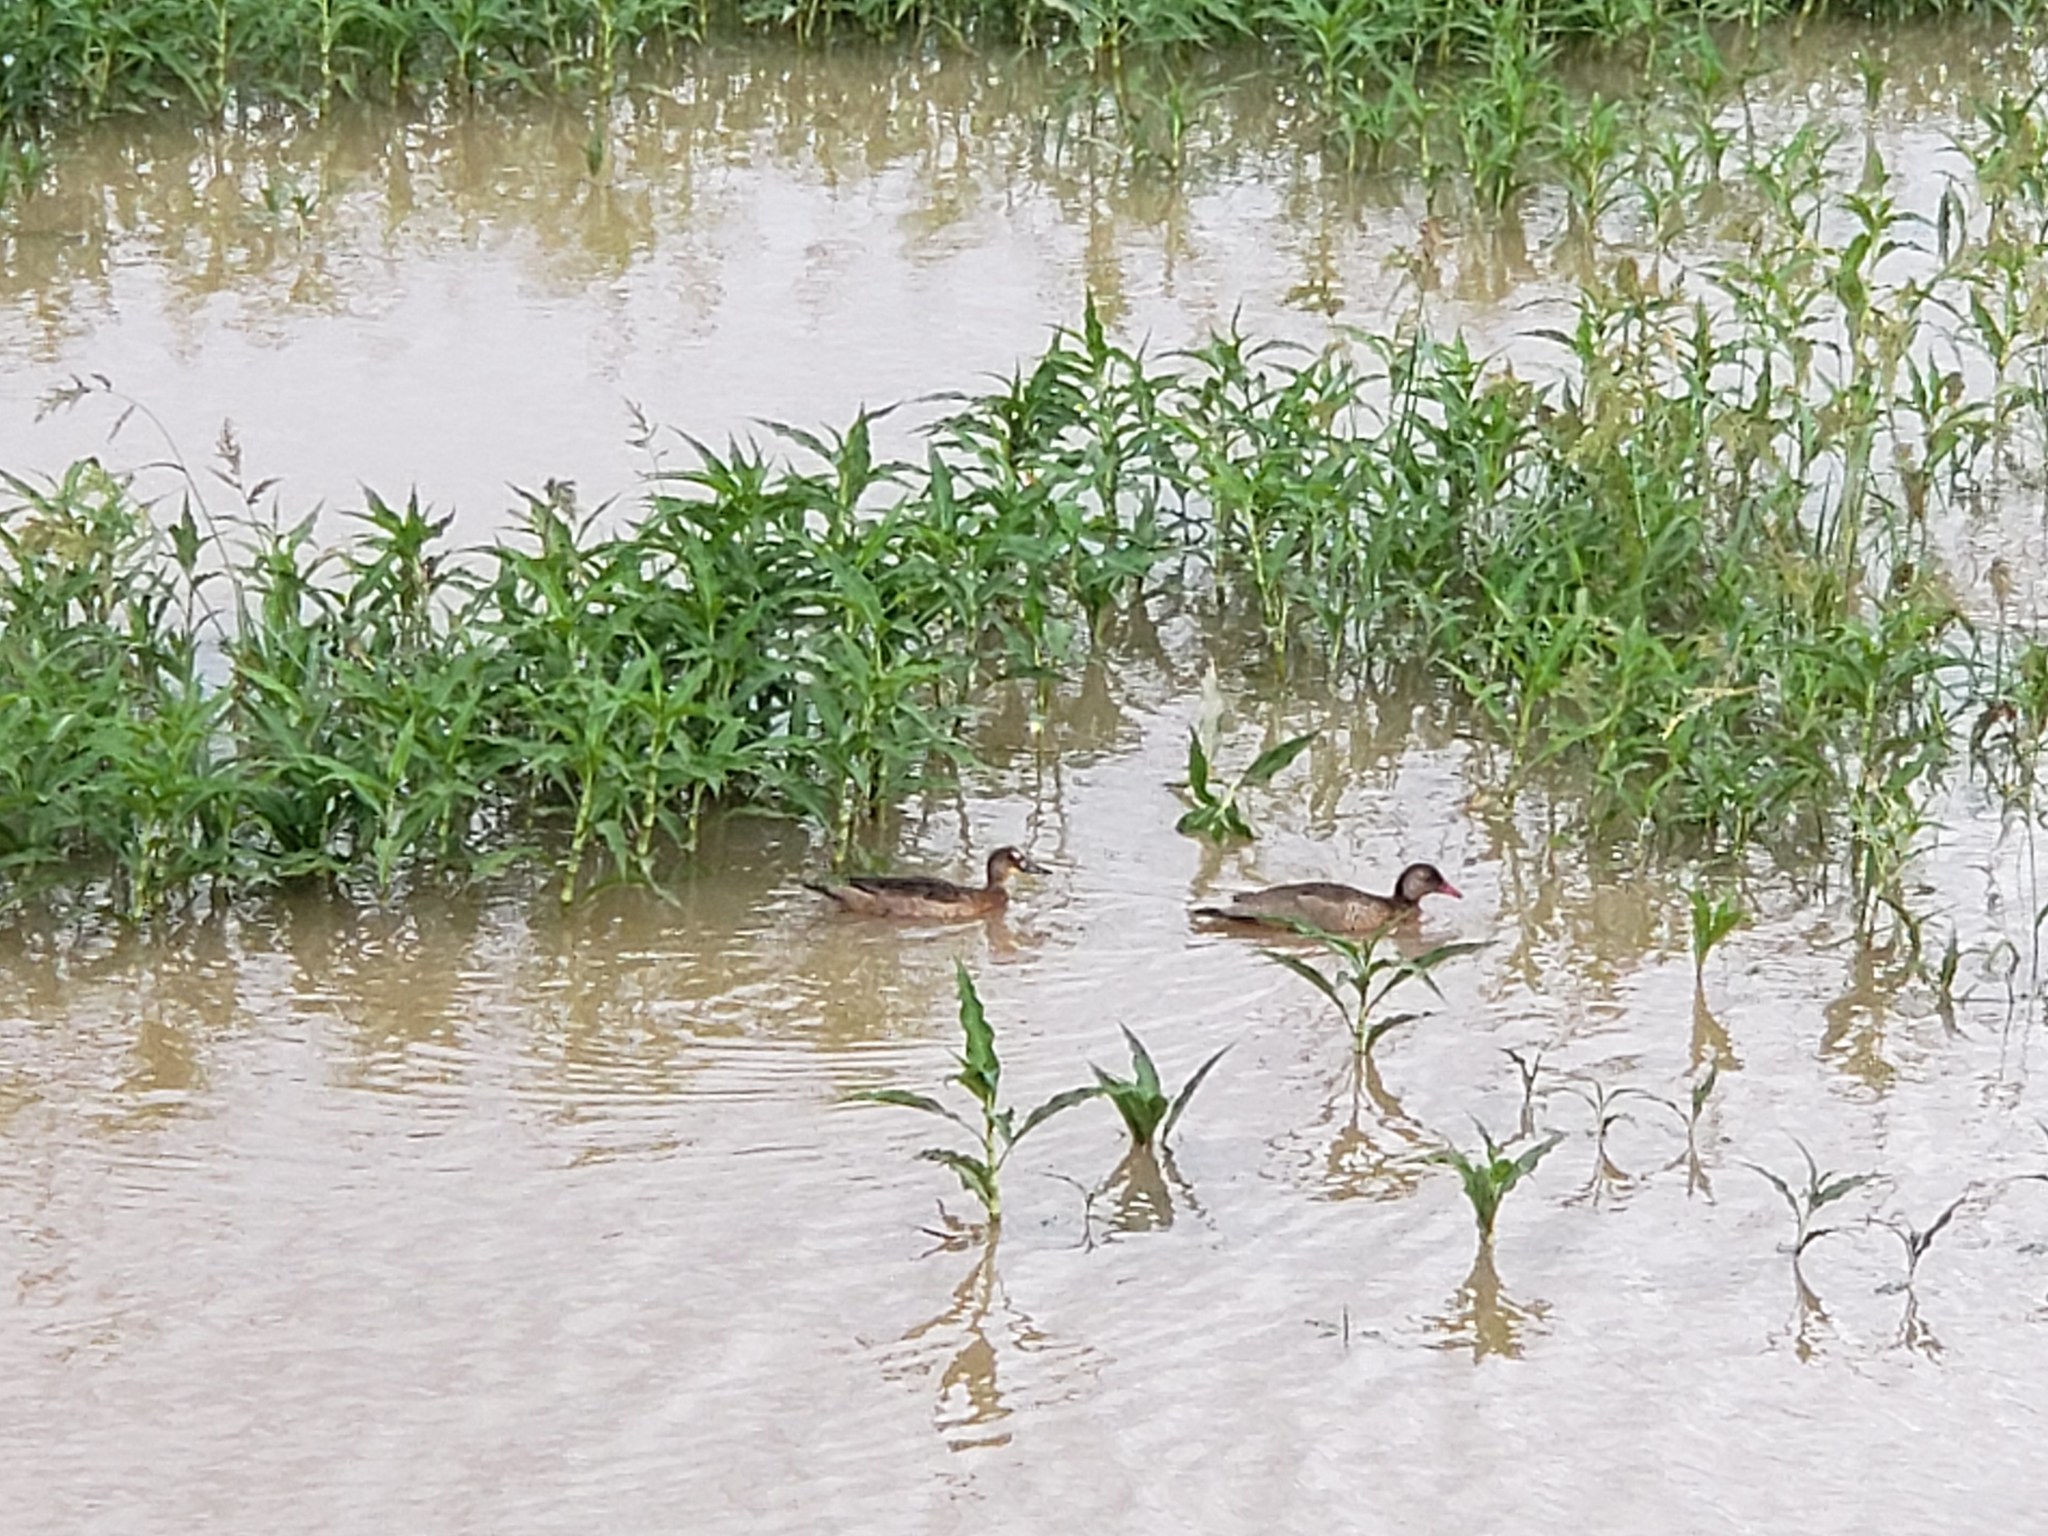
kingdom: Animalia
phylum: Chordata
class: Aves
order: Anseriformes
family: Anatidae
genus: Amazonetta
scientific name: Amazonetta brasiliensis
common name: Brazilian teal
